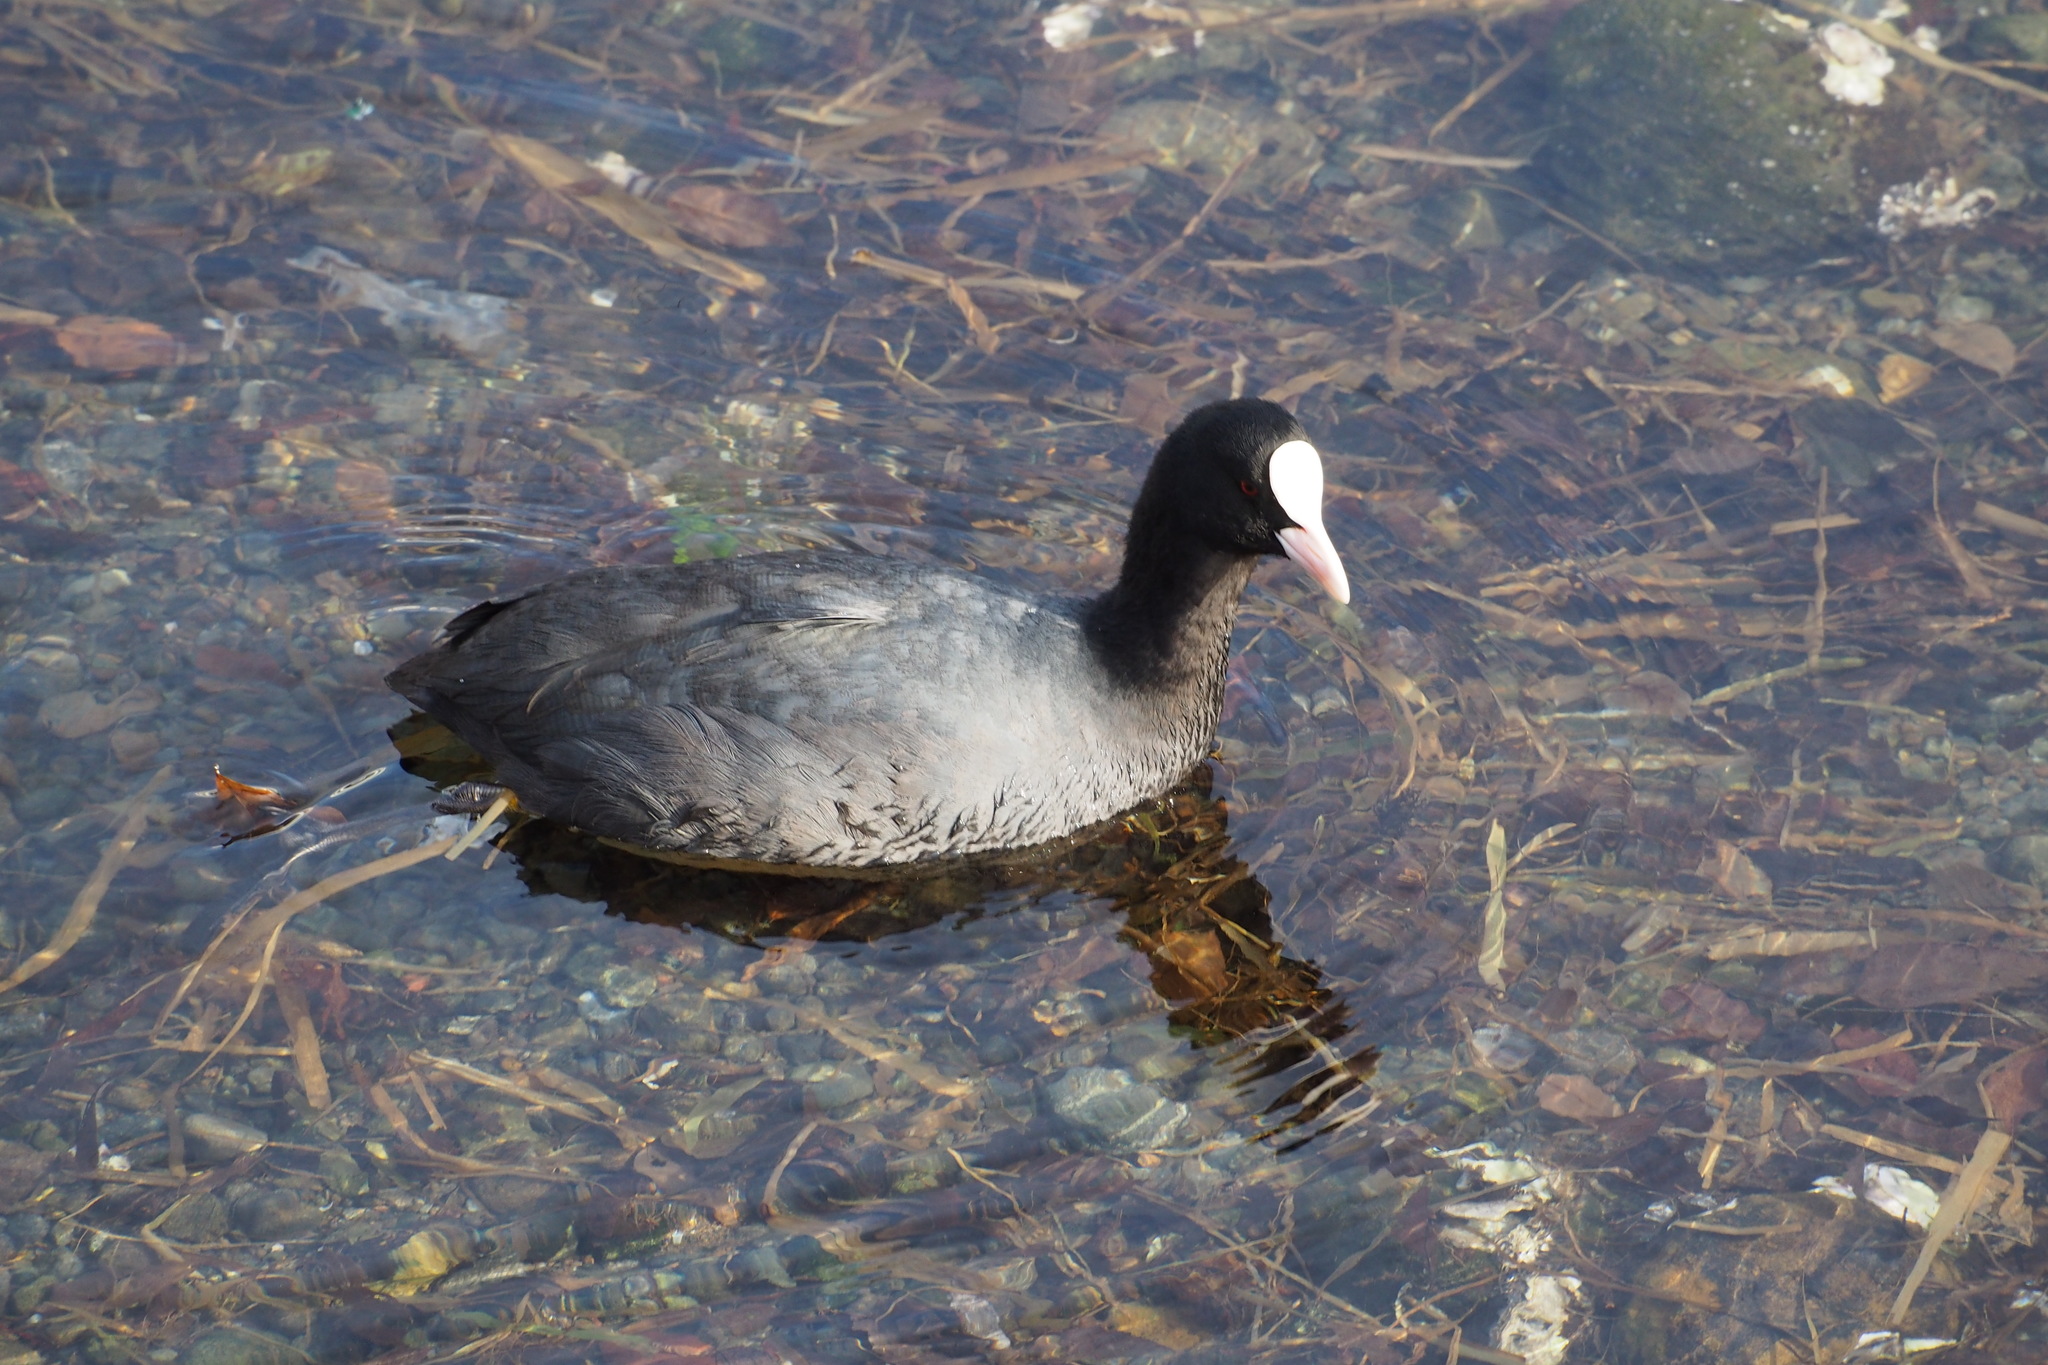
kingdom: Animalia
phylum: Chordata
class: Aves
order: Gruiformes
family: Rallidae
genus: Fulica
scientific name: Fulica atra
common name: Eurasian coot
